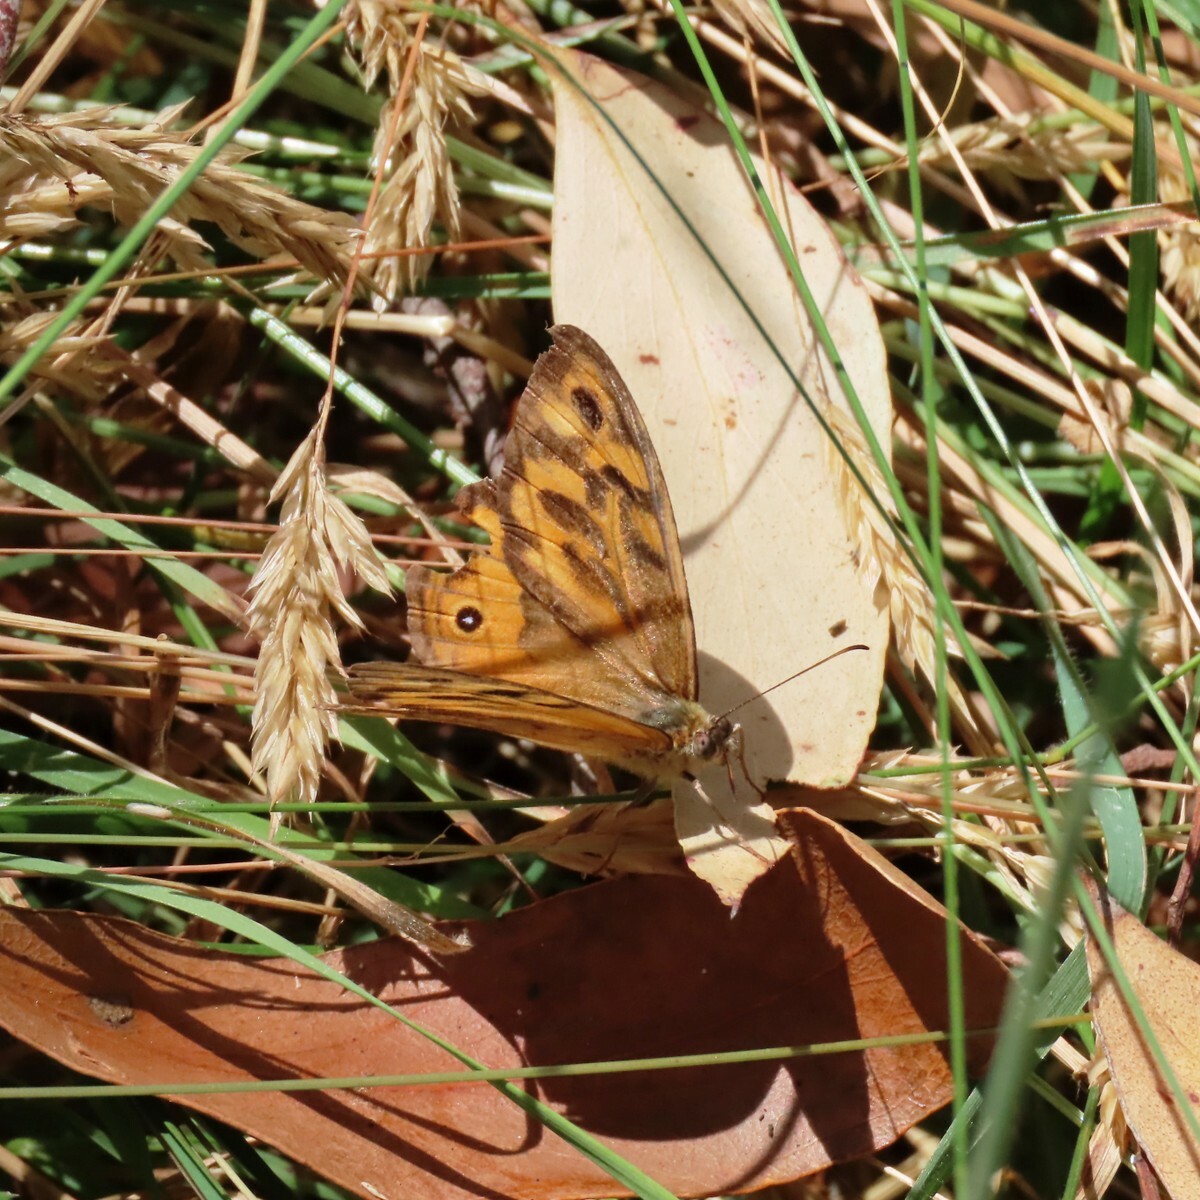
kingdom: Animalia
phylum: Arthropoda
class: Insecta
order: Lepidoptera
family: Nymphalidae
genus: Heteronympha
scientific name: Heteronympha merope
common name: Common brown
